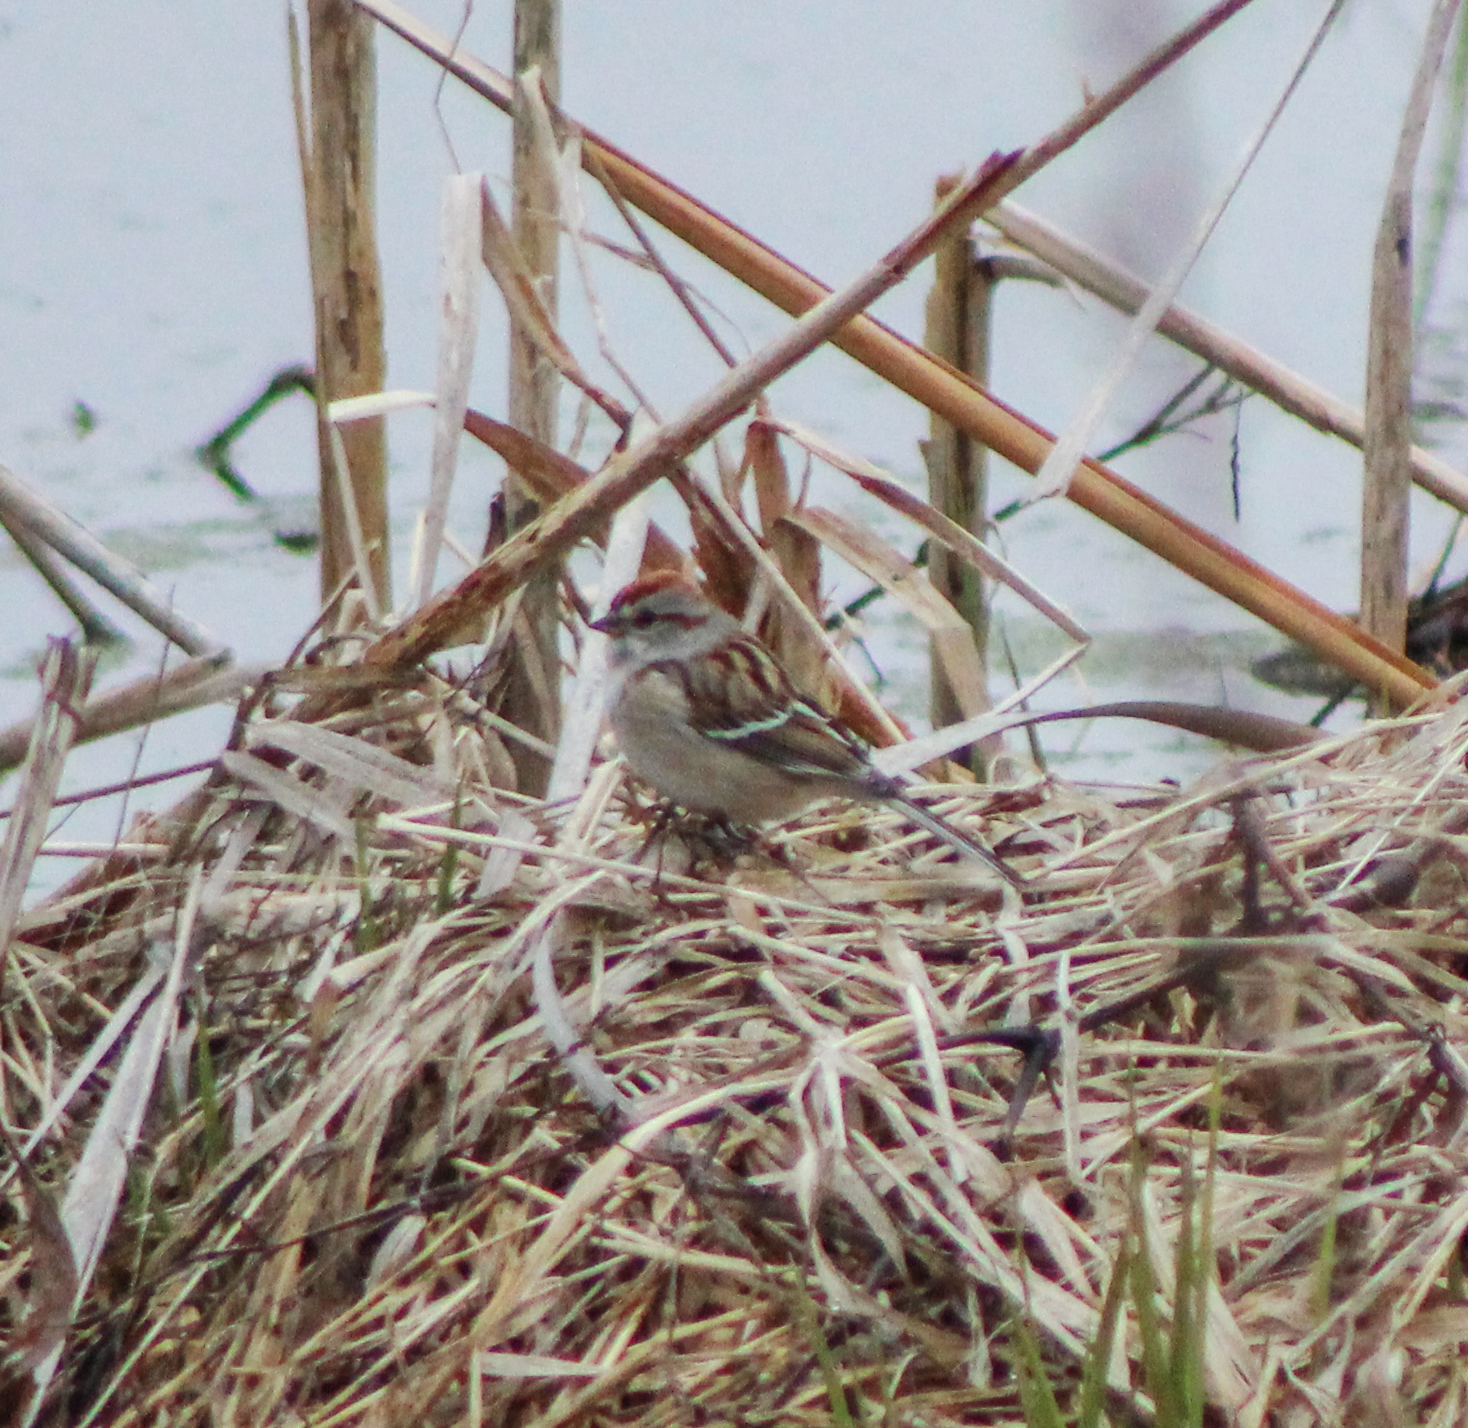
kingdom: Animalia
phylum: Chordata
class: Aves
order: Passeriformes
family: Passerellidae
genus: Spizelloides
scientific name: Spizelloides arborea
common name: American tree sparrow
